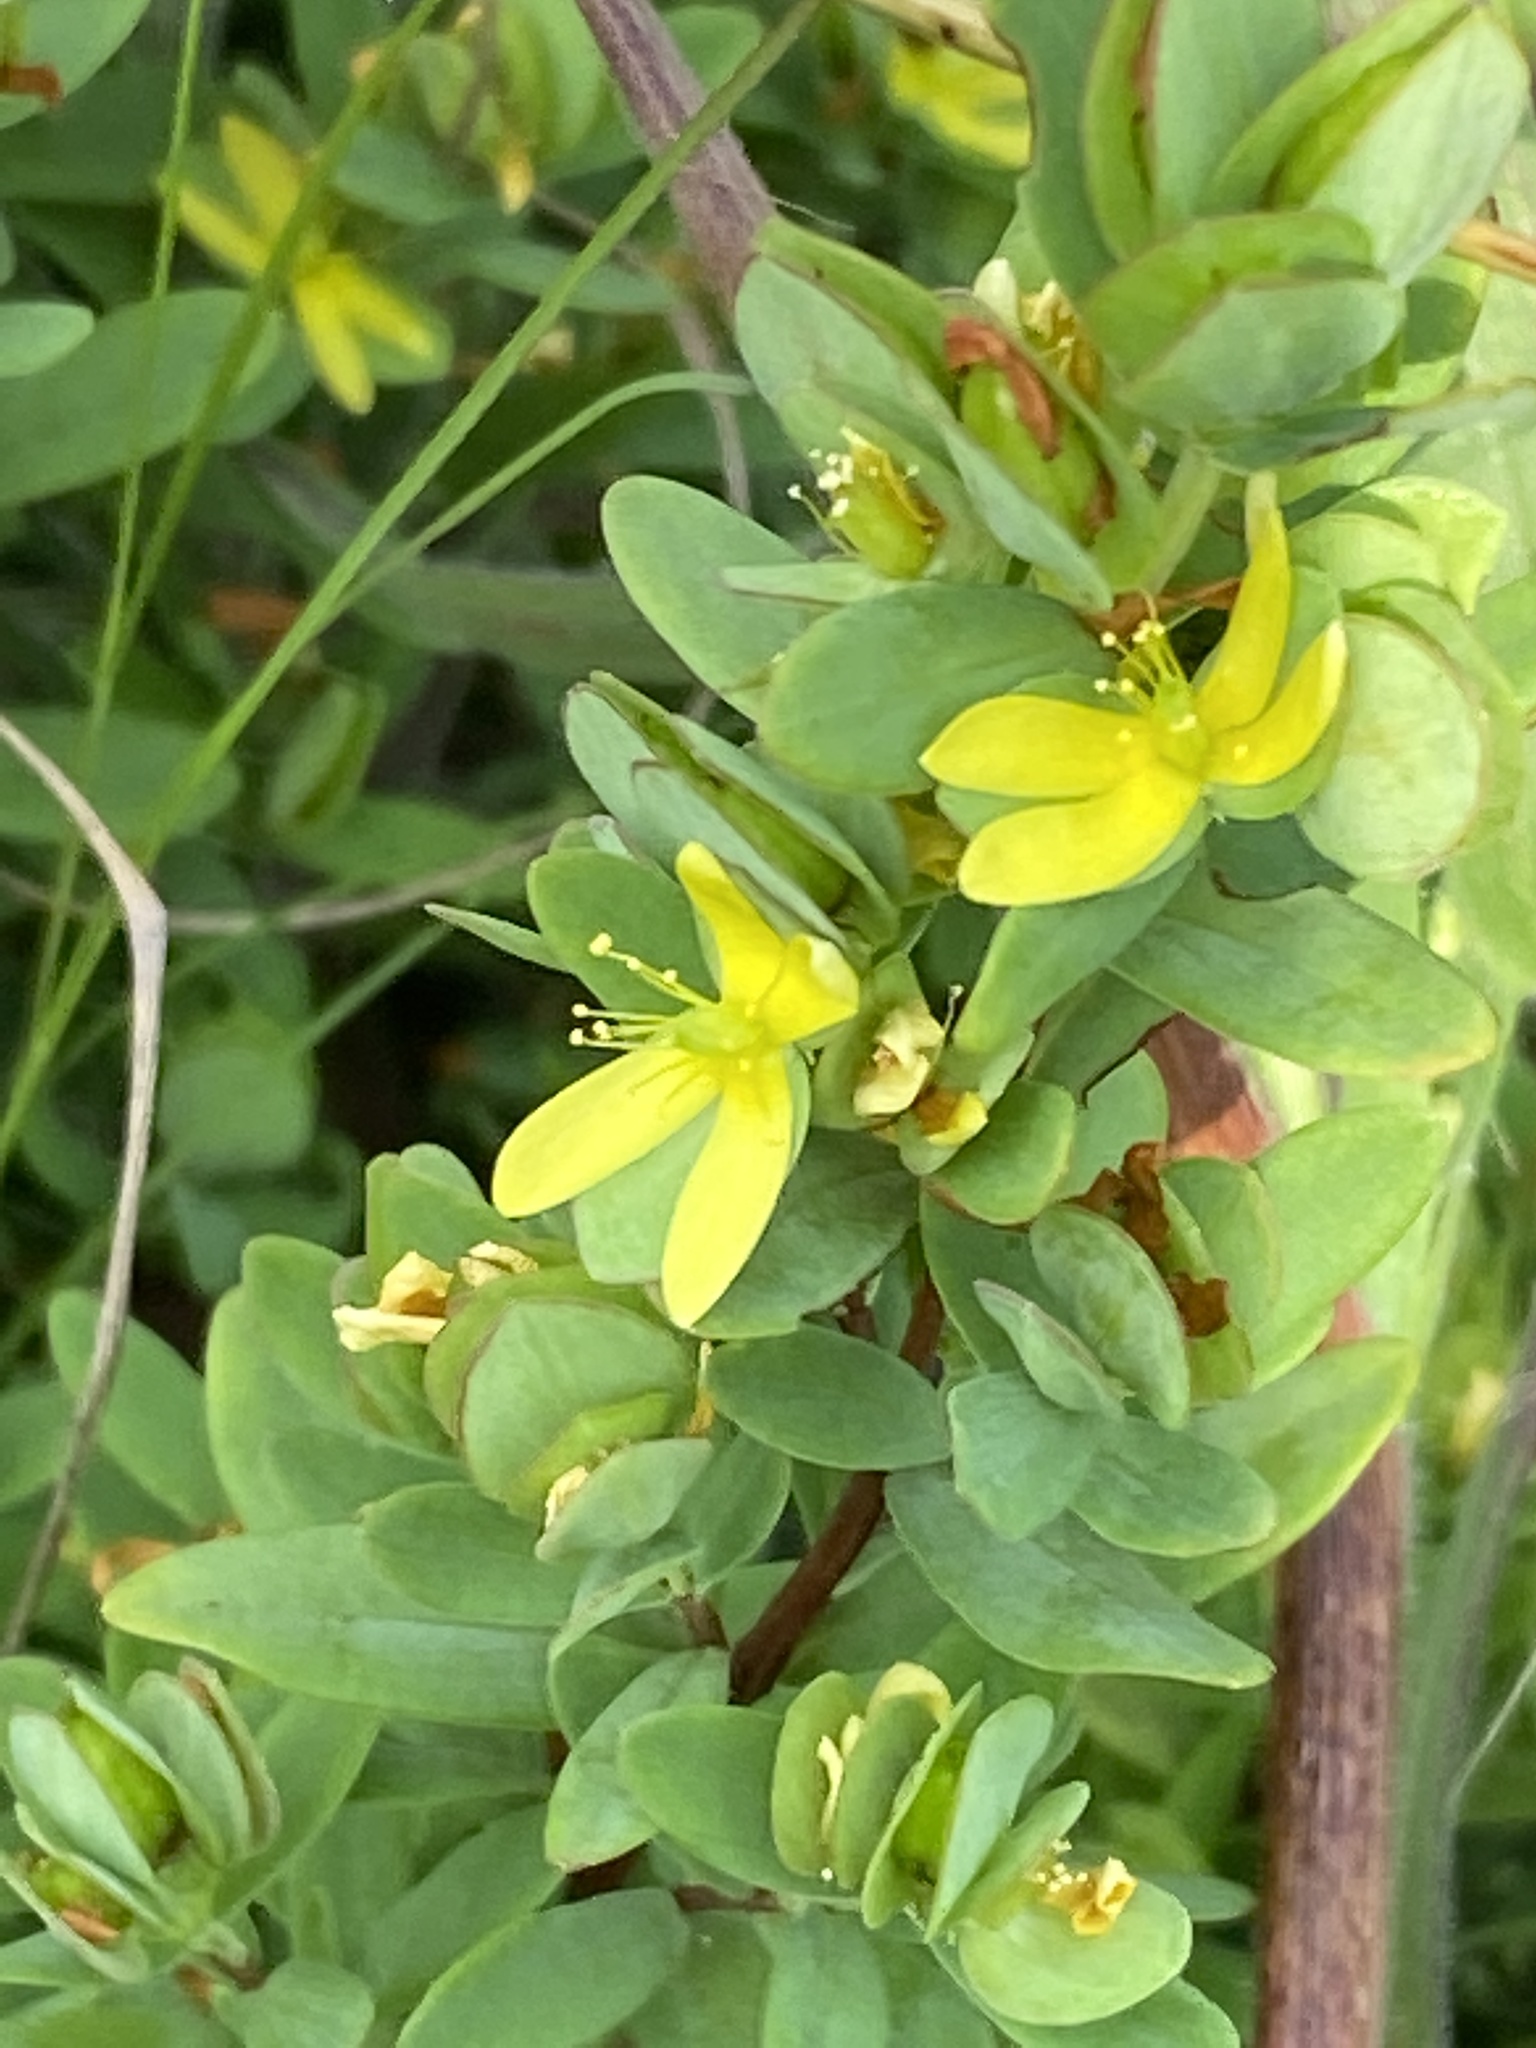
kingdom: Plantae
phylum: Tracheophyta
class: Magnoliopsida
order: Malpighiales
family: Hypericaceae
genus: Hypericum
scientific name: Hypericum crux-andreae
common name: St.-peter's-wort
